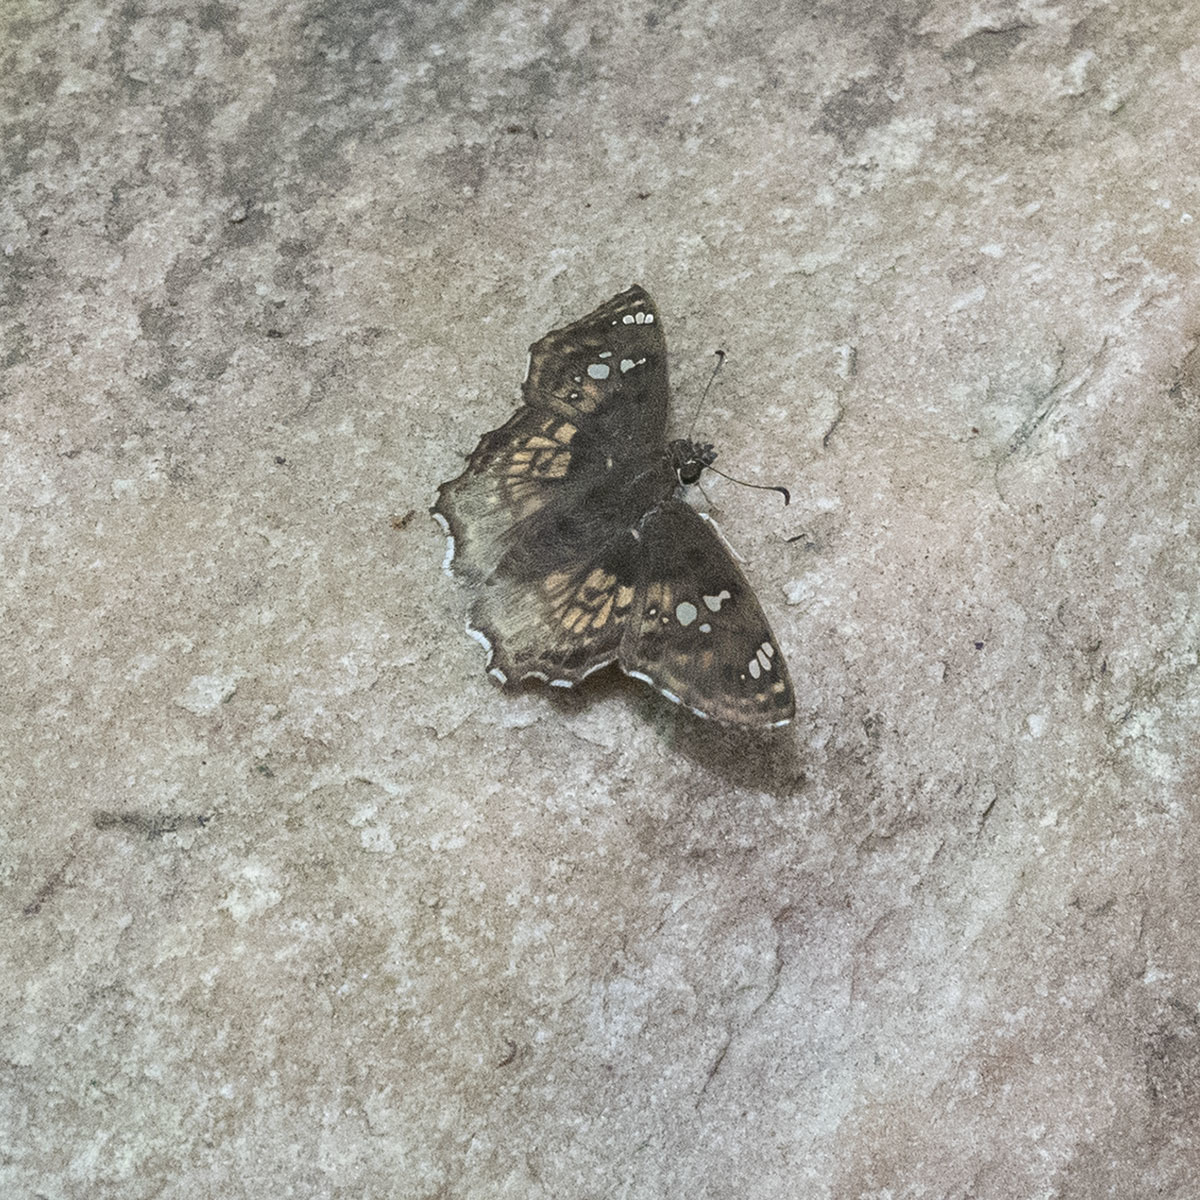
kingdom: Animalia
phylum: Arthropoda
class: Insecta
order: Lepidoptera
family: Hesperiidae
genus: Caprona
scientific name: Caprona ransonnettii
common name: Golden angle
